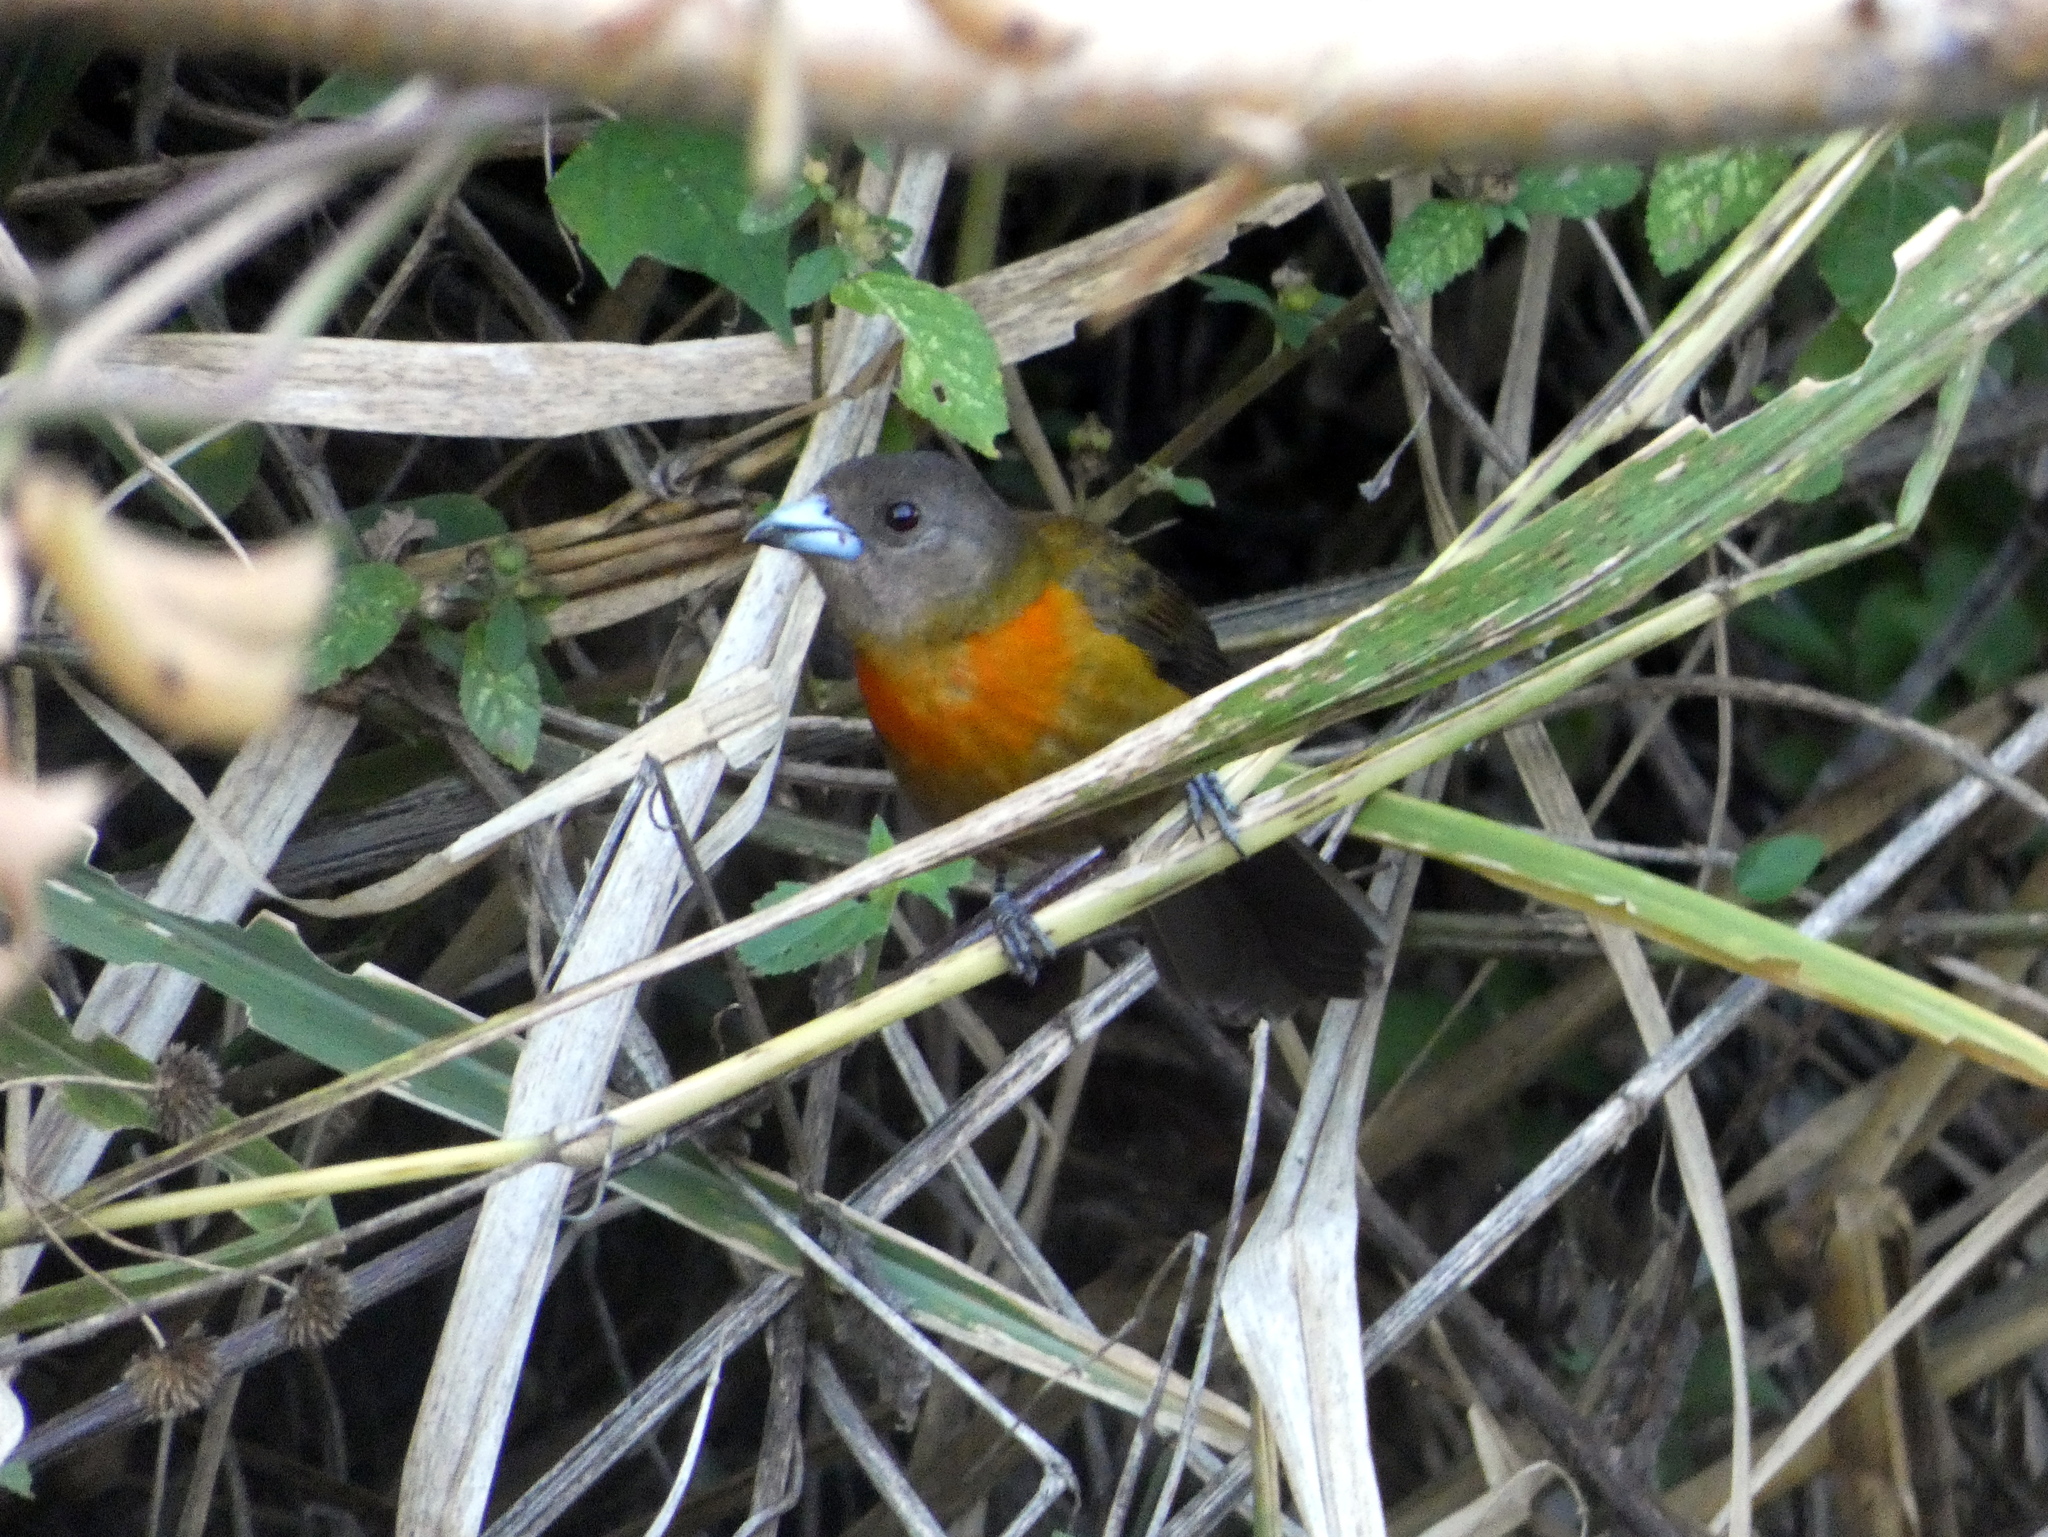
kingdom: Animalia
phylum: Chordata
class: Aves
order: Passeriformes
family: Thraupidae
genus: Ramphocelus
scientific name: Ramphocelus passerinii
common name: Passerini's tanager
